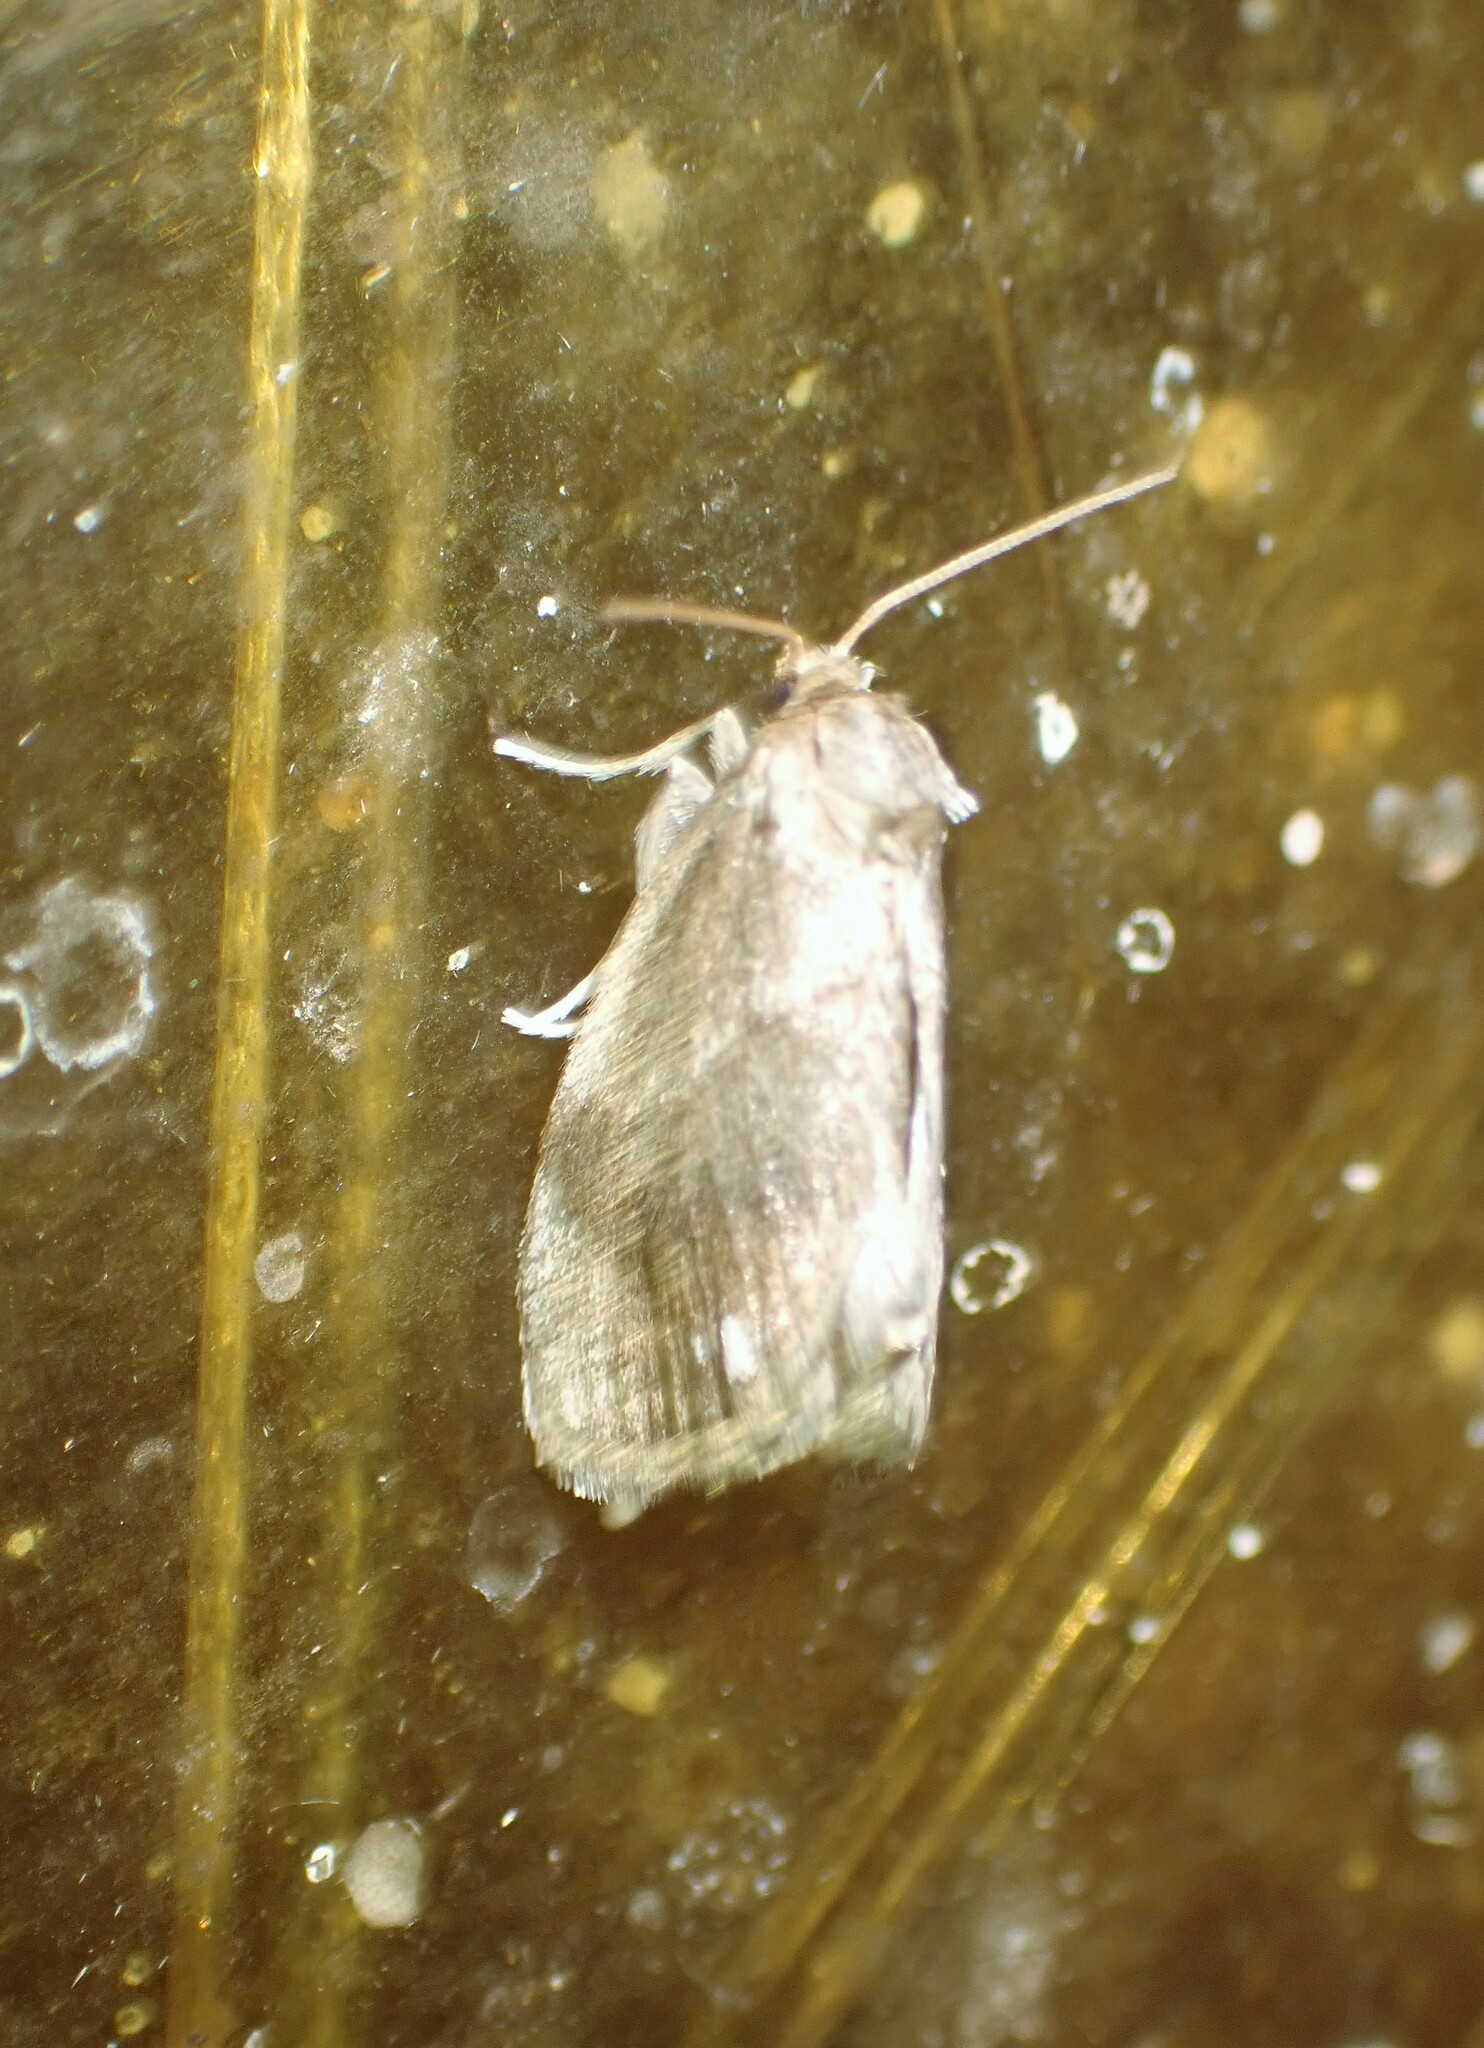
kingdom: Animalia
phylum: Arthropoda
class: Insecta
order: Lepidoptera
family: Limacodidae
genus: Packardia
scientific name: Packardia geminata
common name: Jeweled tailed slug moth
